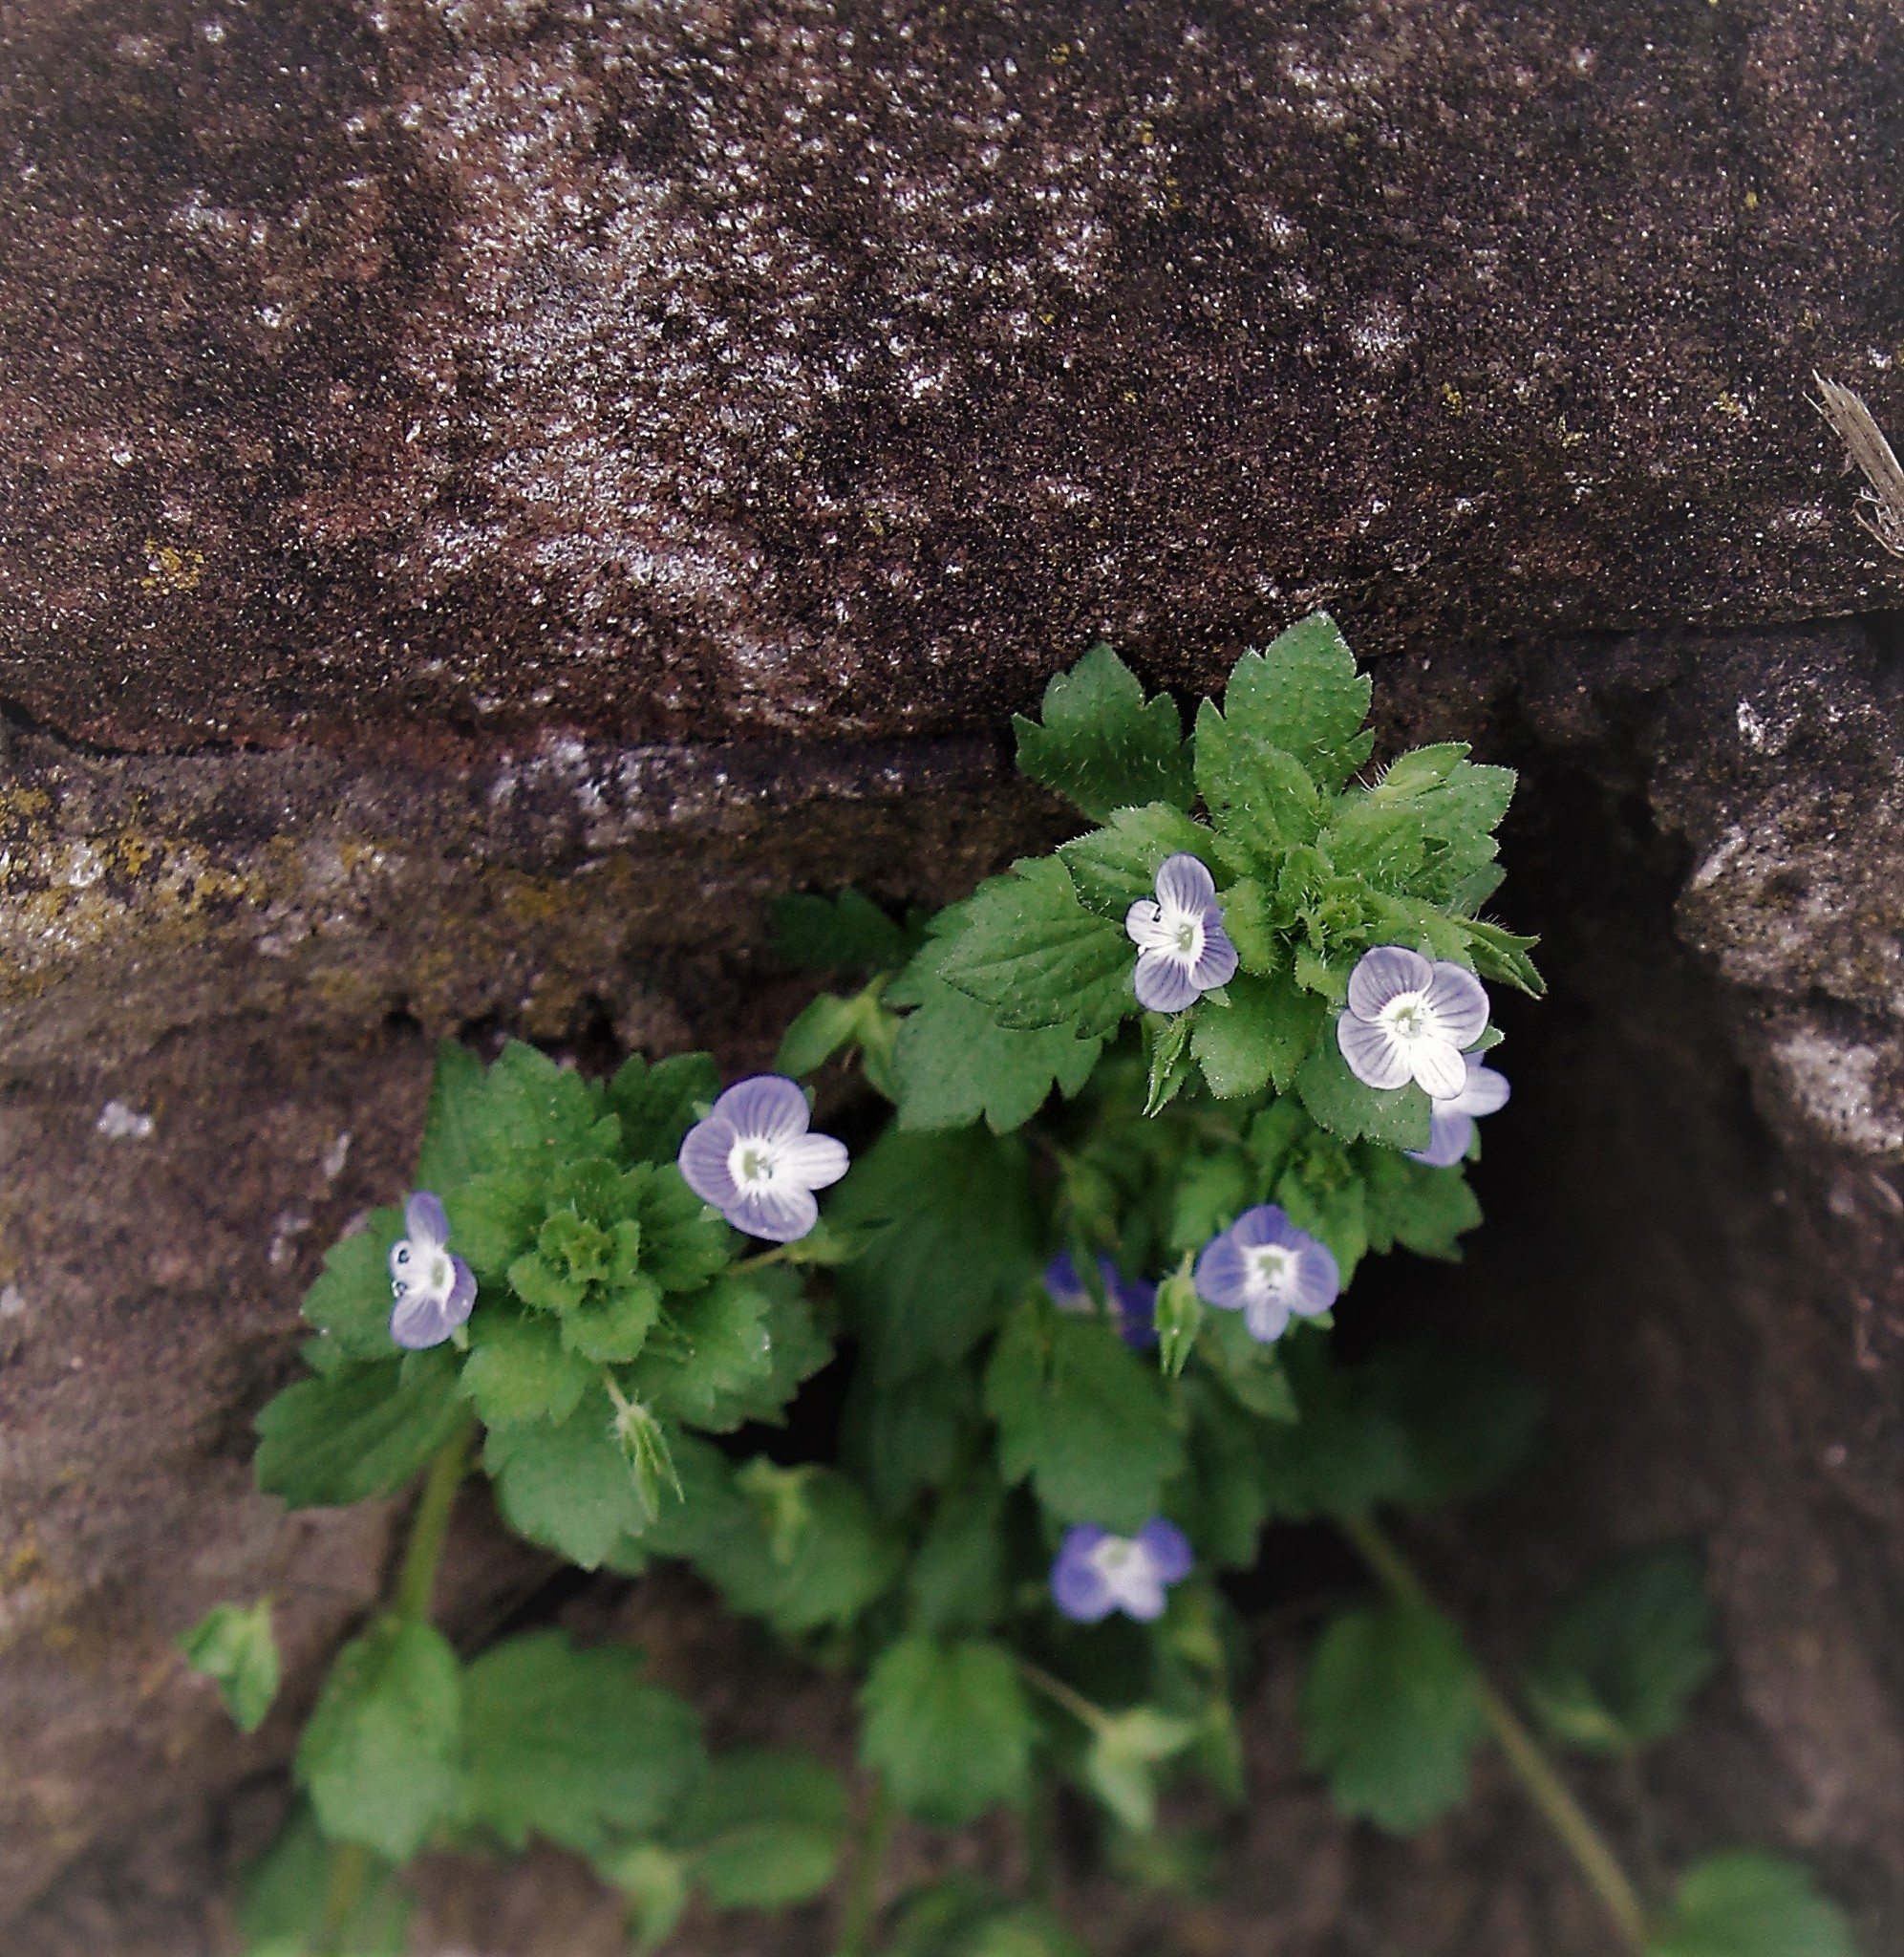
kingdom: Plantae
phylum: Tracheophyta
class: Magnoliopsida
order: Lamiales
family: Plantaginaceae
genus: Veronica
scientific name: Veronica persica
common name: Common field-speedwell
